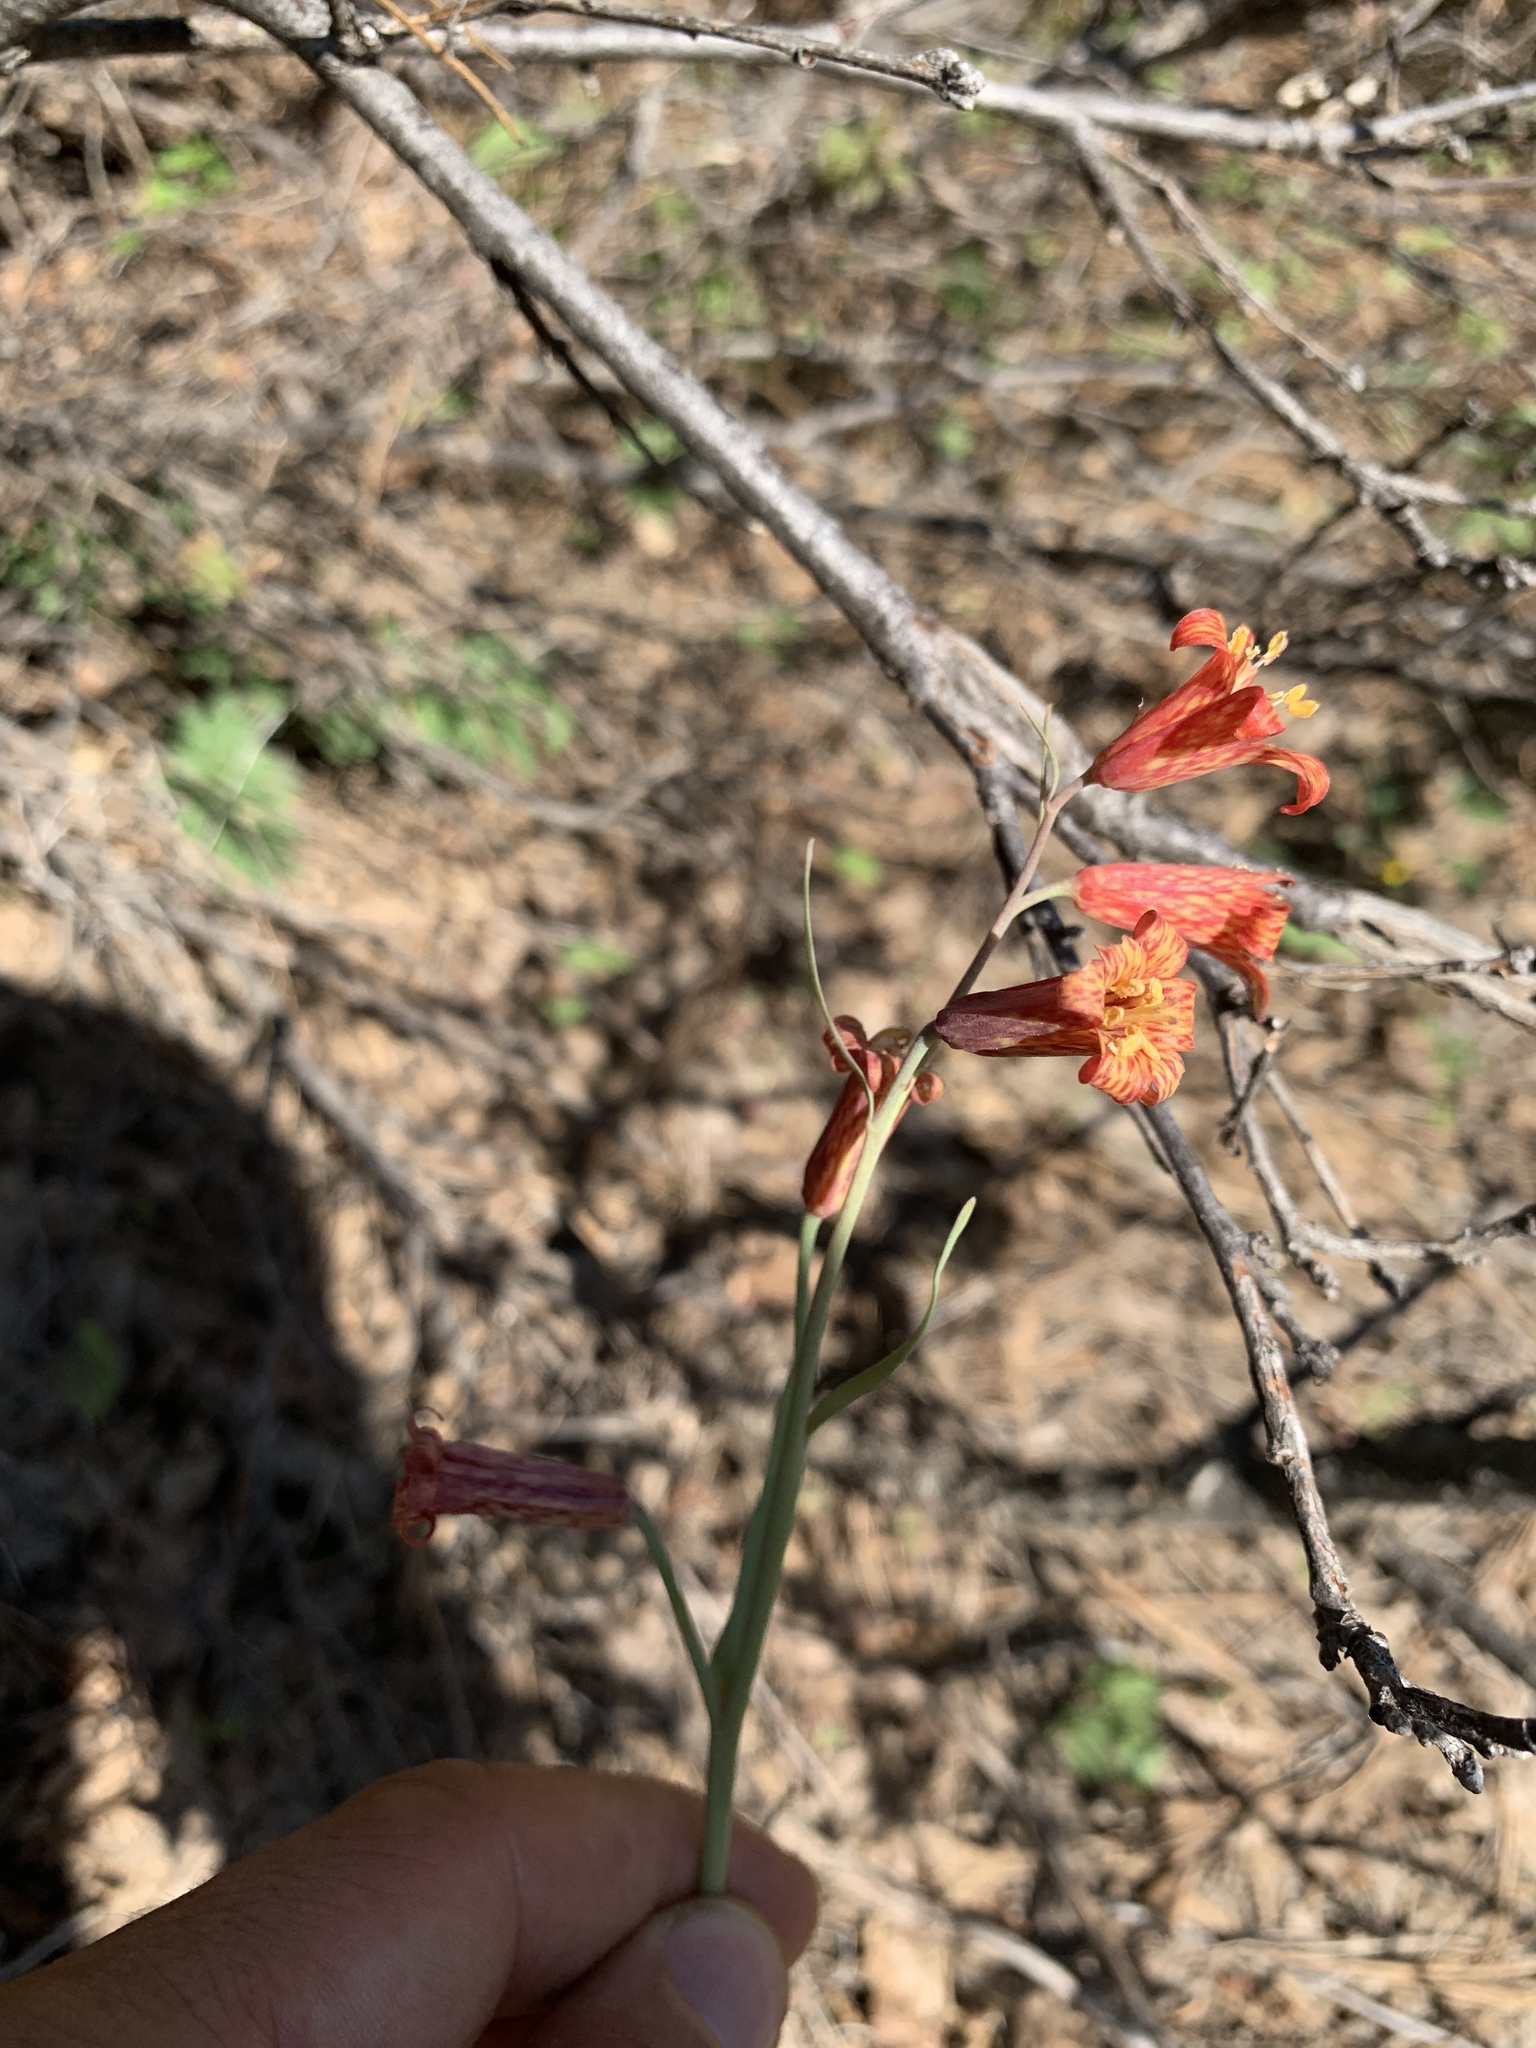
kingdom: Plantae
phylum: Tracheophyta
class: Liliopsida
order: Liliales
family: Liliaceae
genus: Fritillaria
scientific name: Fritillaria recurva
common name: Scarlet fritillary
